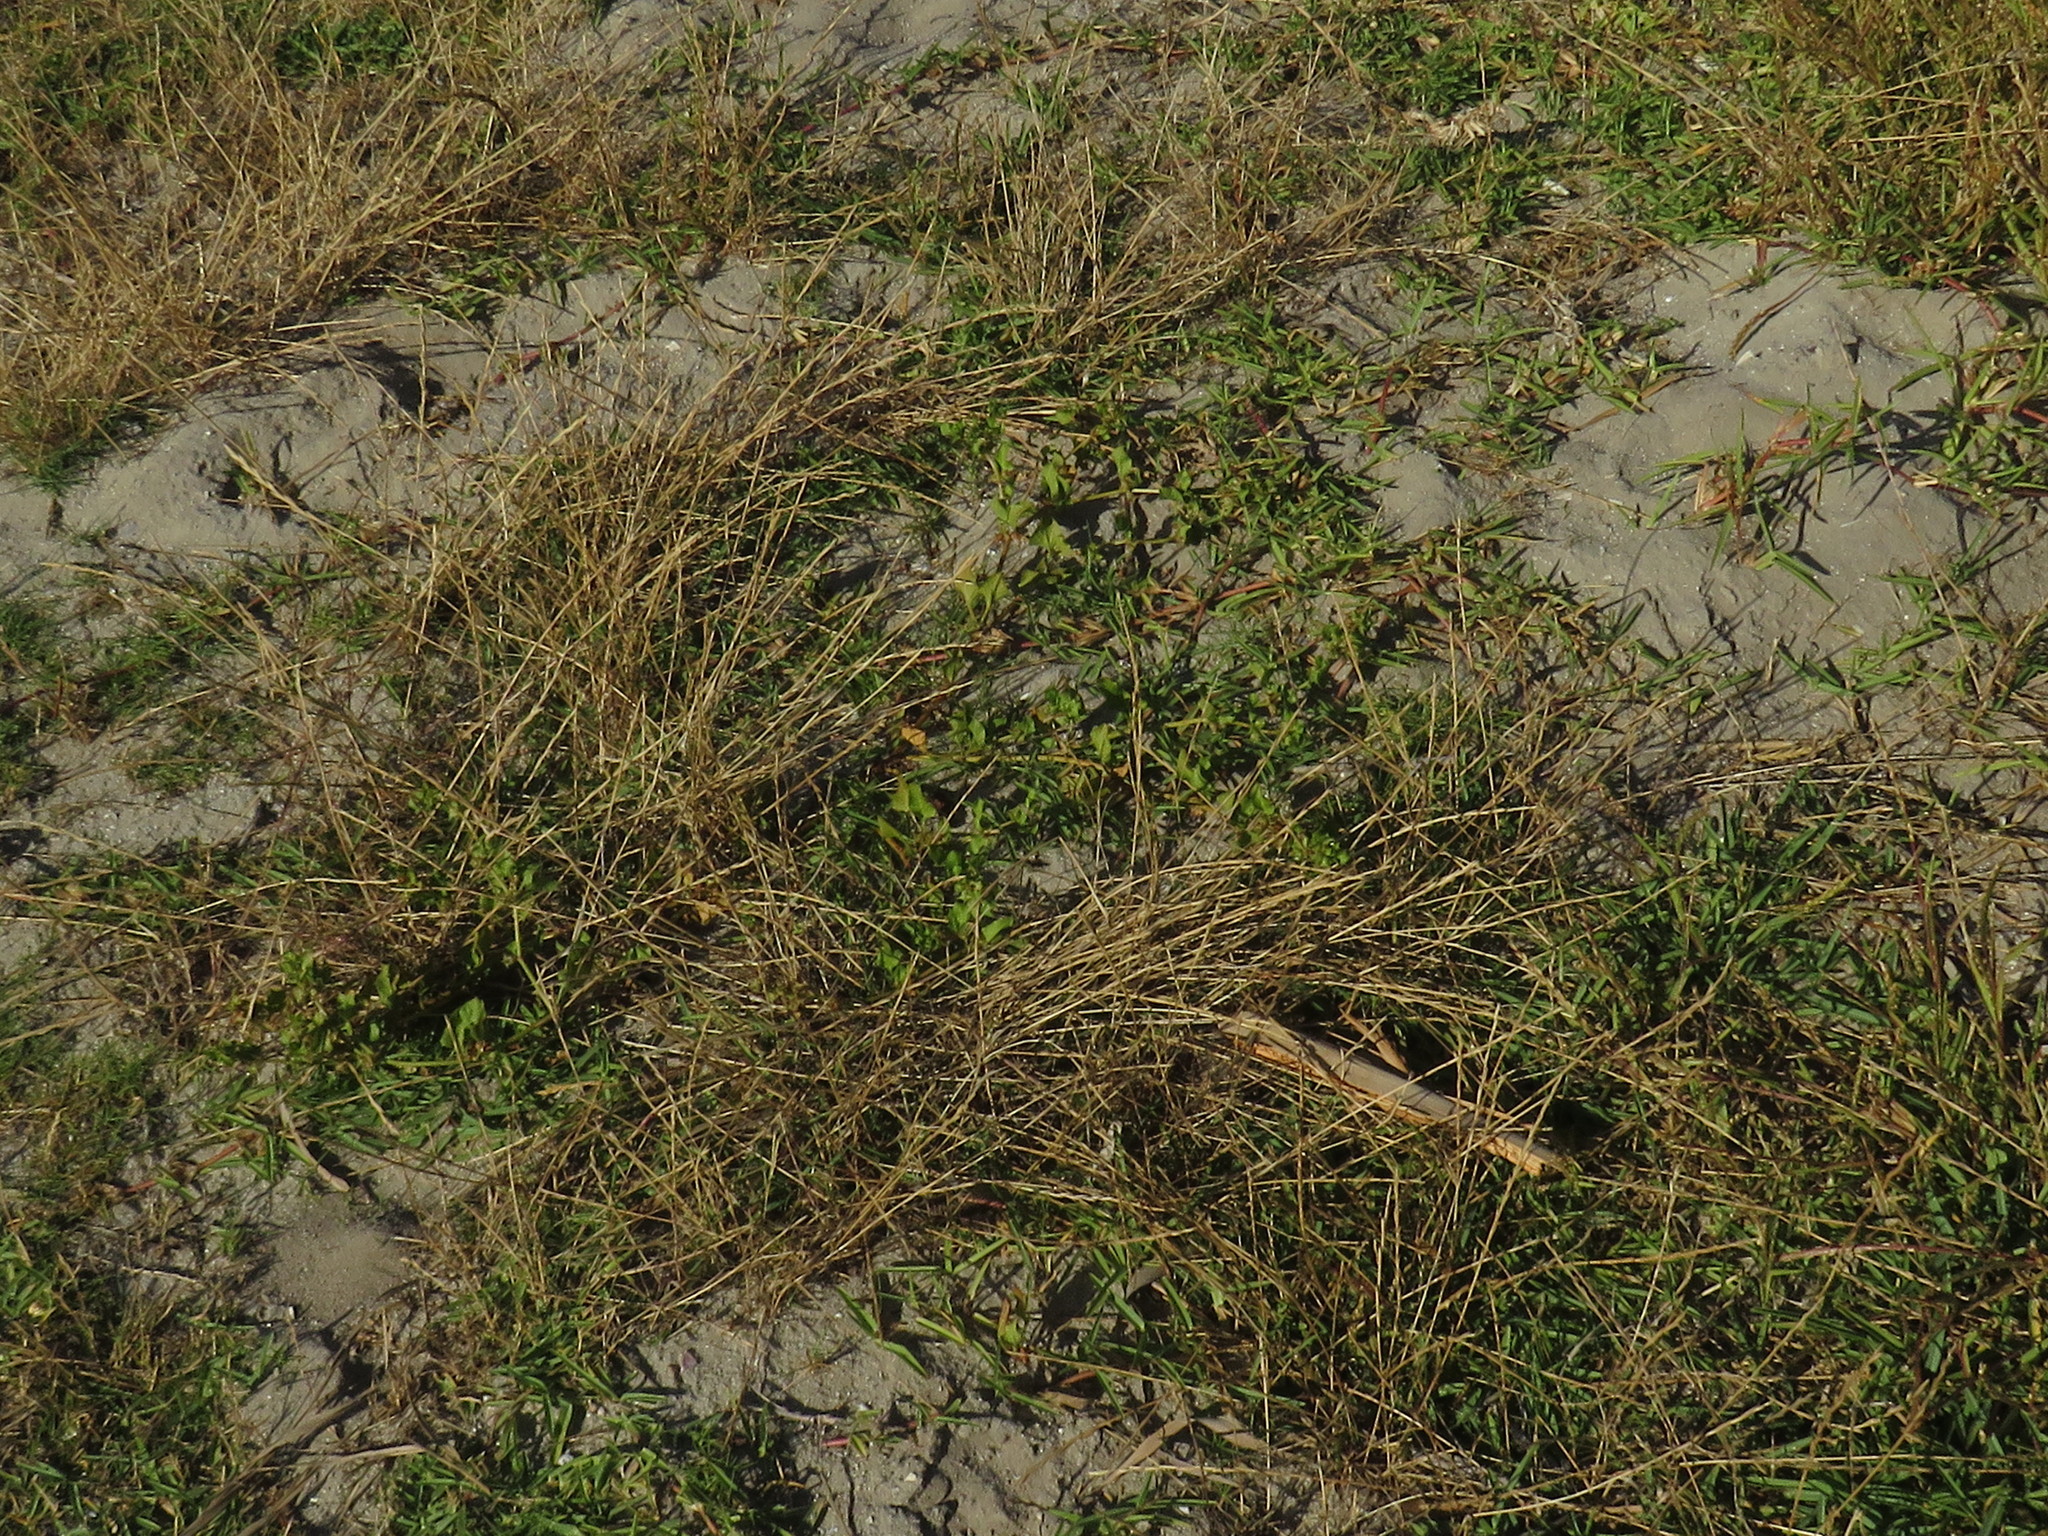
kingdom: Plantae
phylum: Tracheophyta
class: Magnoliopsida
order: Caryophyllales
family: Polygonaceae
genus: Rumex
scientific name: Rumex hypogaeus
